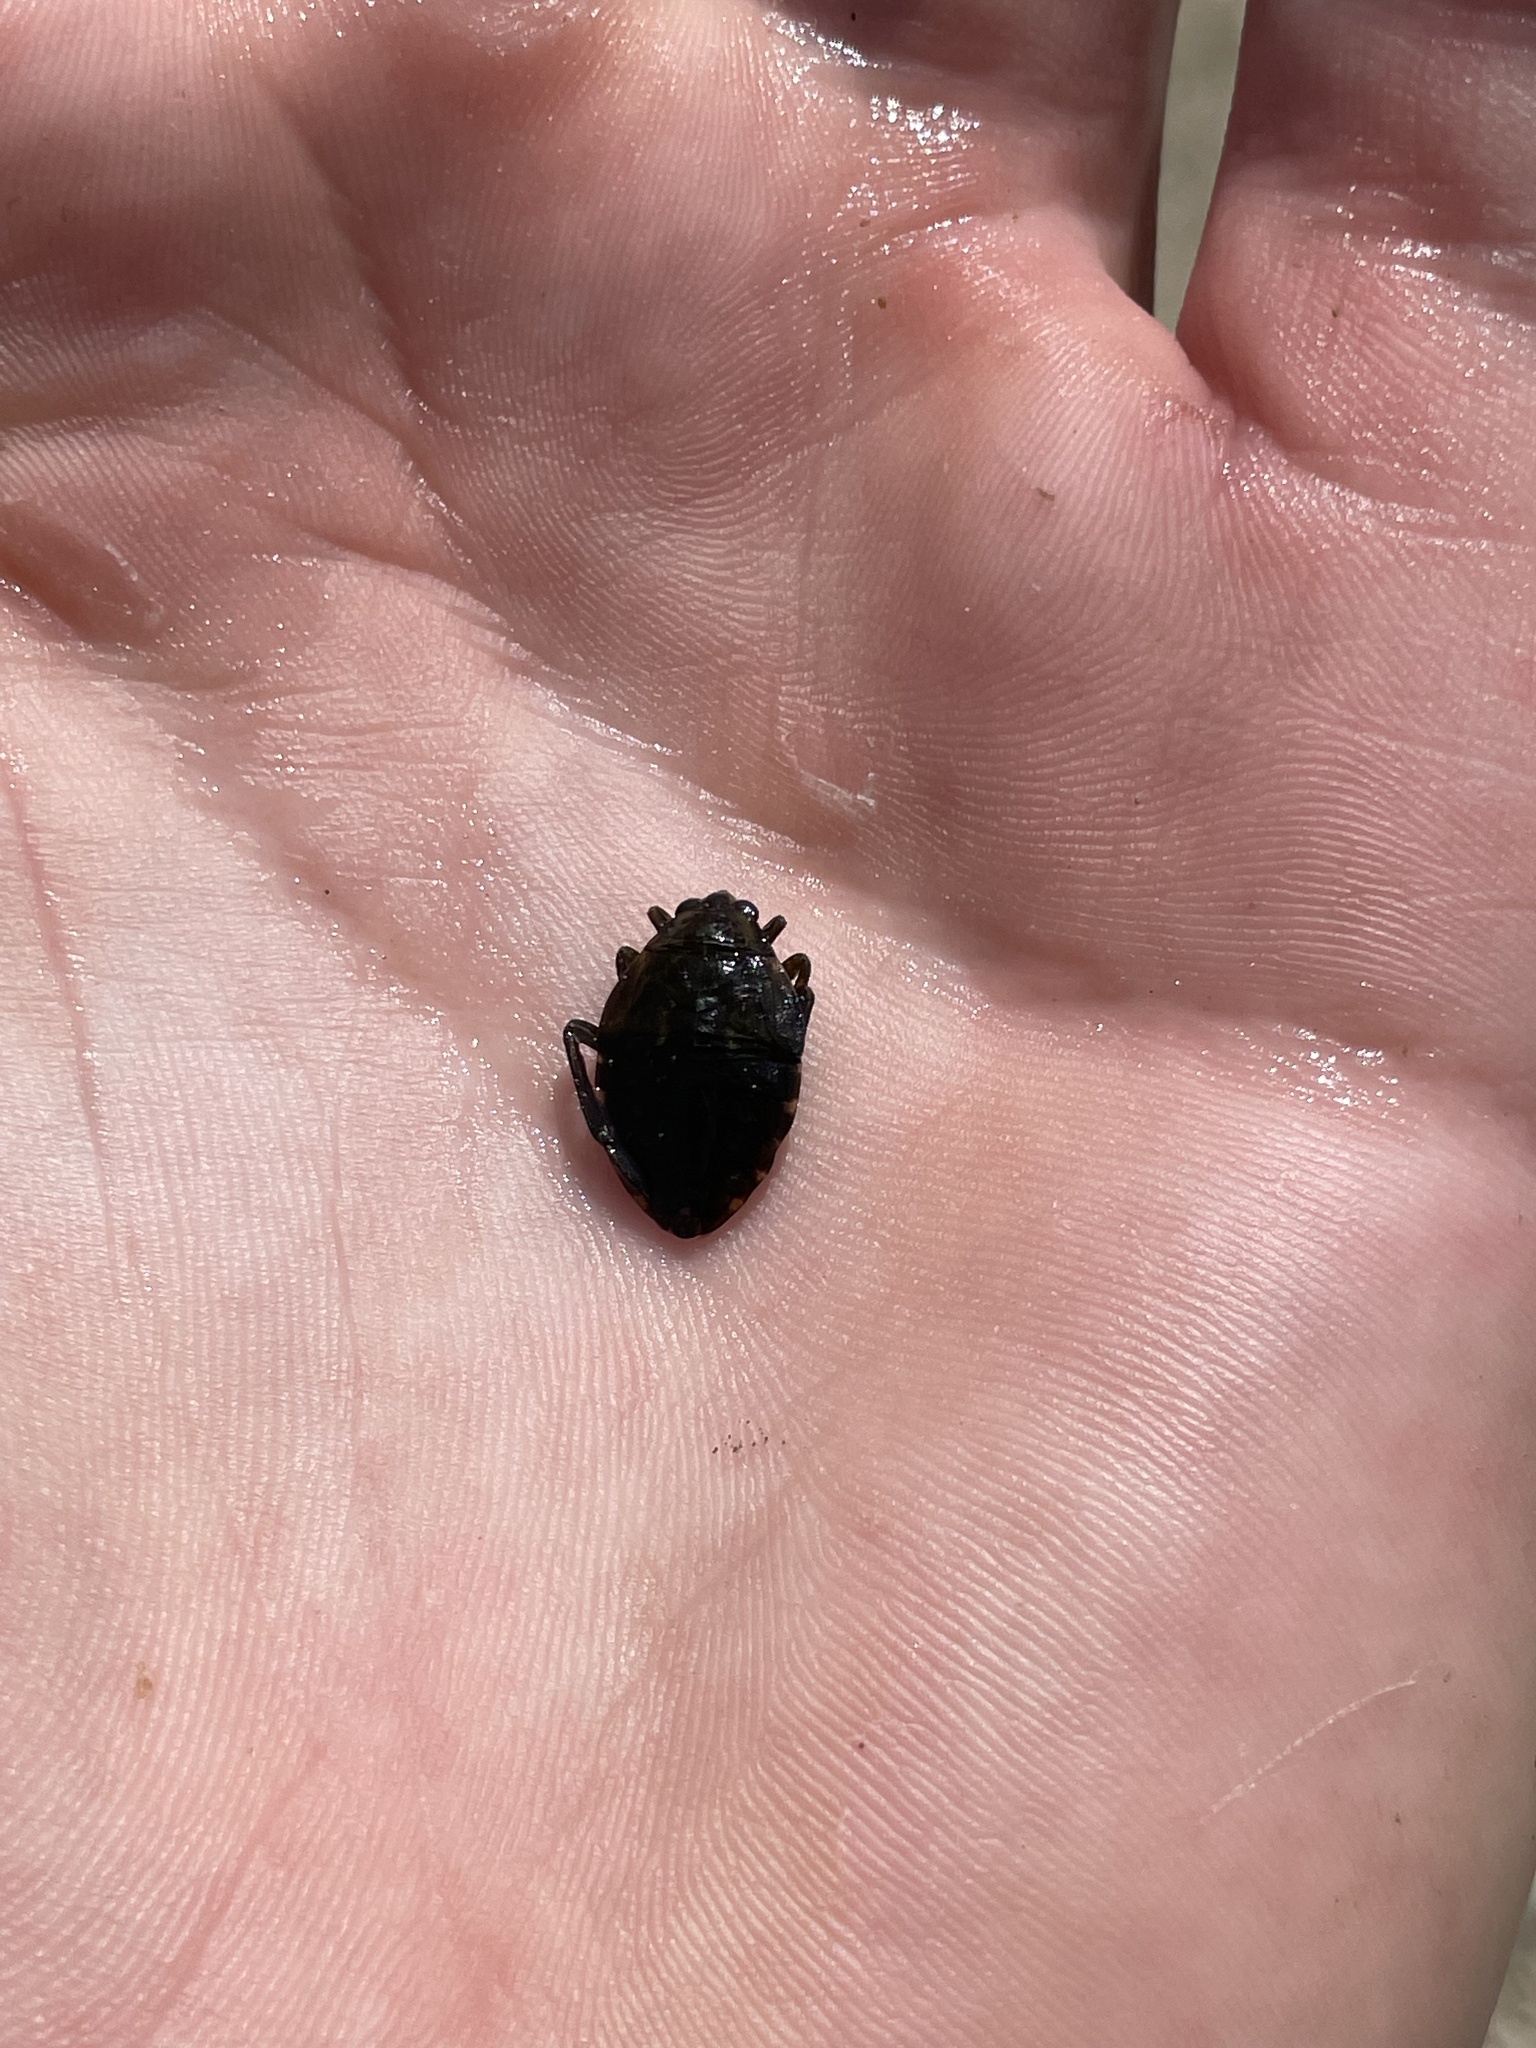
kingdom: Animalia
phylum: Arthropoda
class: Insecta
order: Hemiptera
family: Belostomatidae
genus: Belostoma
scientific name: Belostoma
